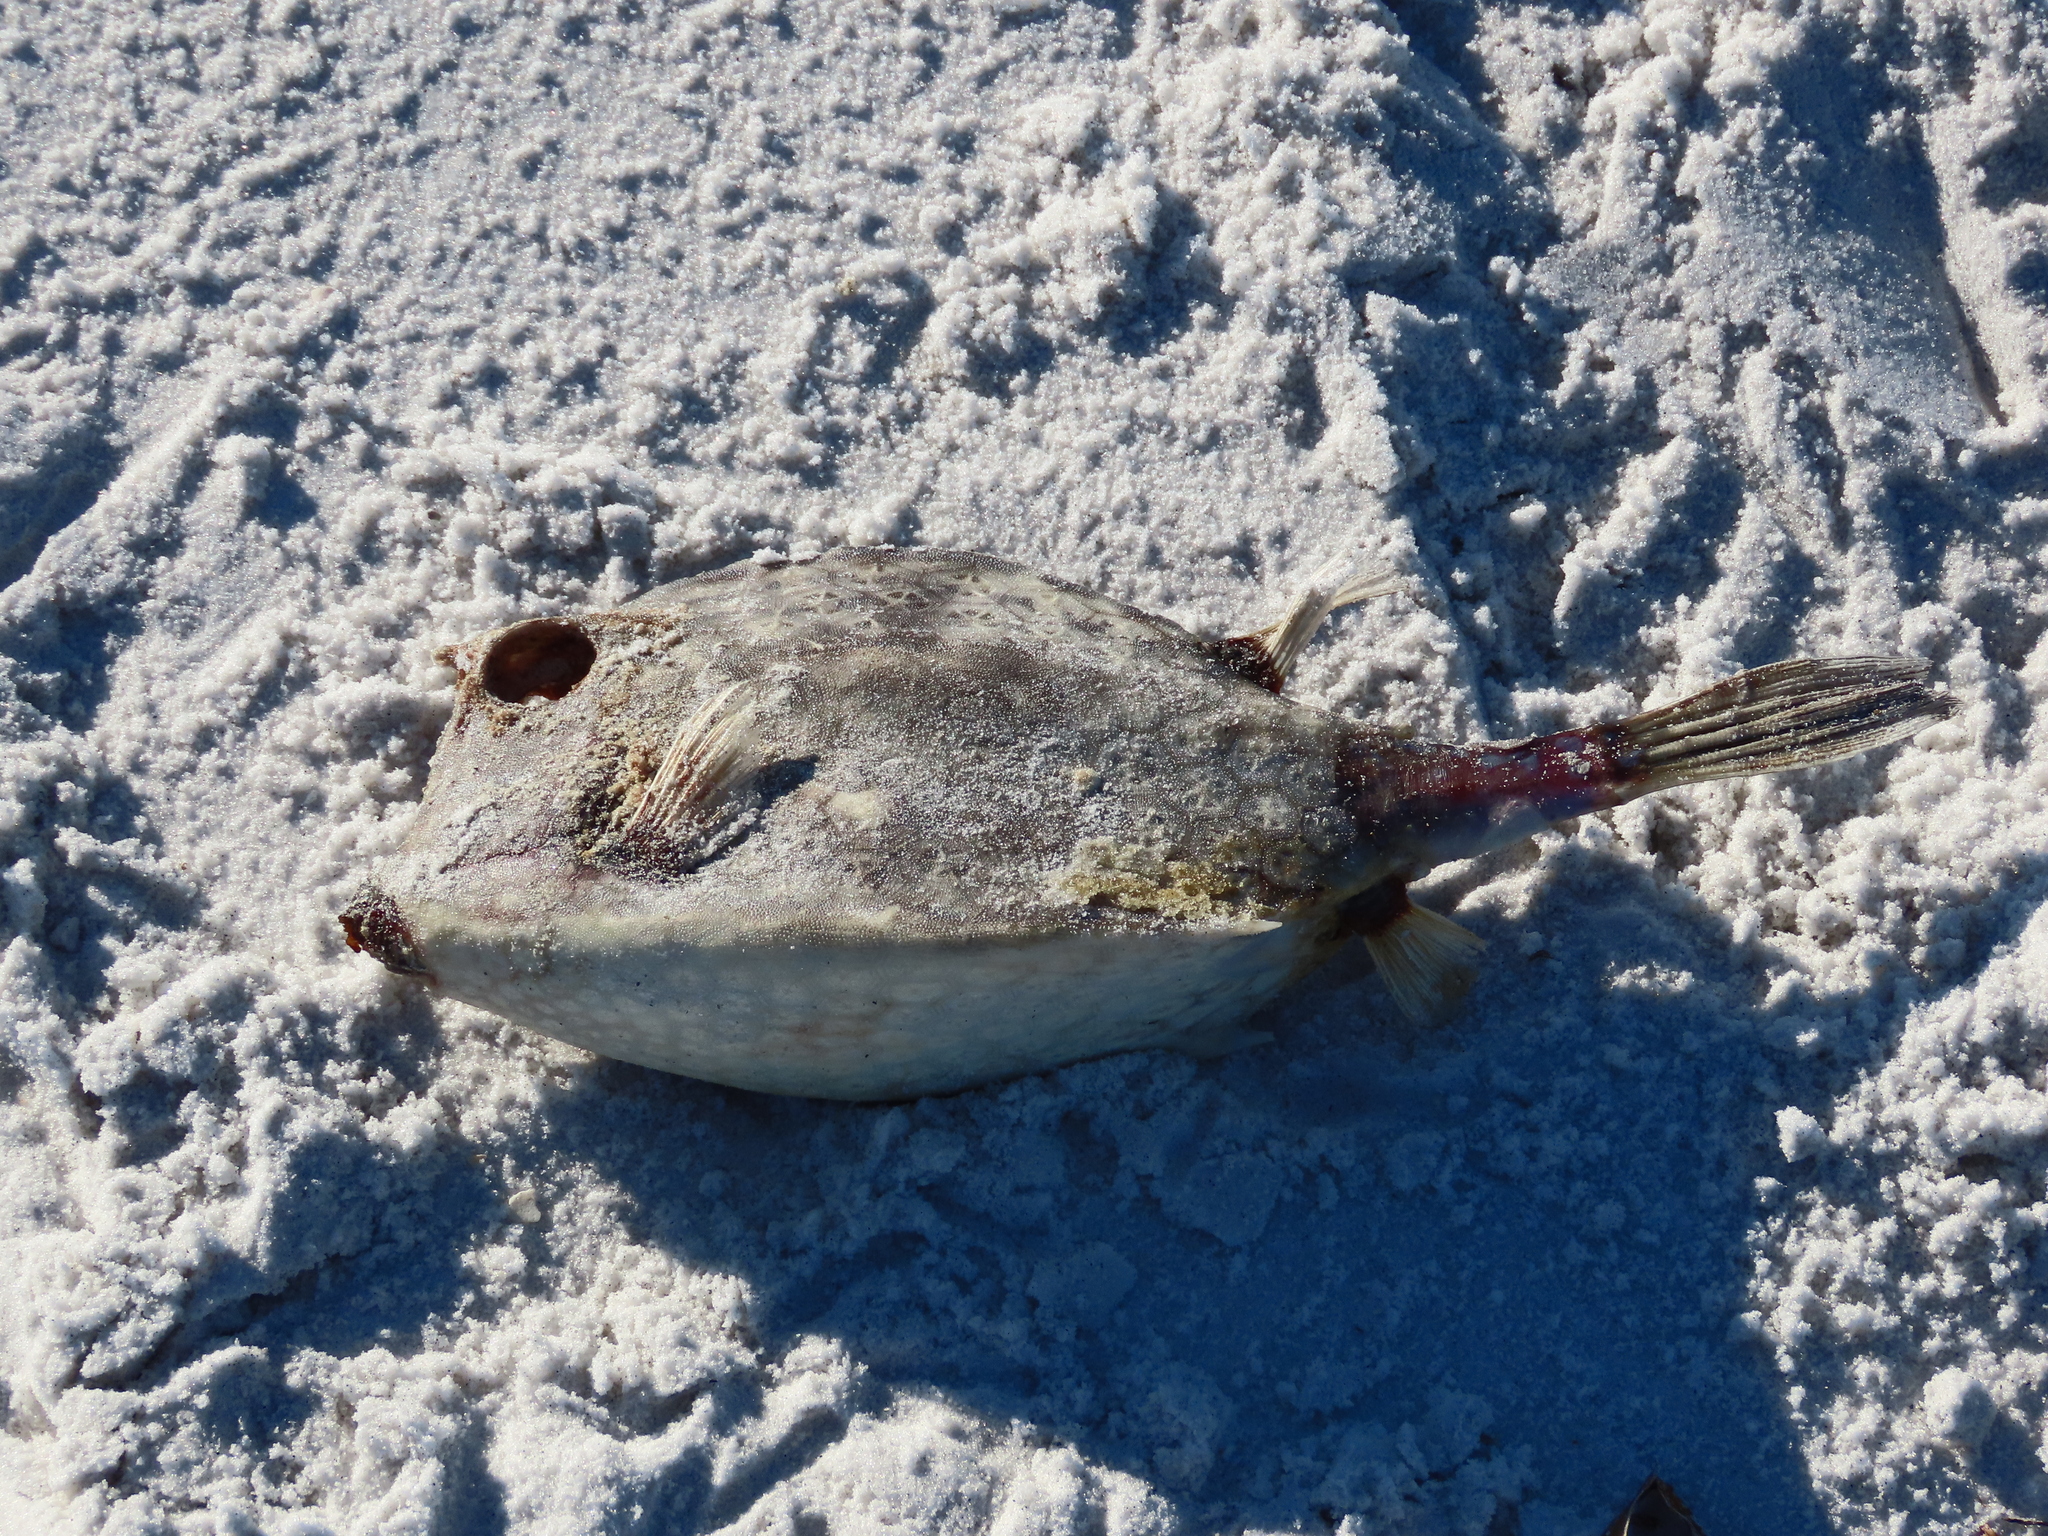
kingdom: Animalia
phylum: Chordata
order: Tetraodontiformes
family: Ostraciidae
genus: Acanthostracion
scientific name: Acanthostracion quadricornis
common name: Scrawled cowfish
